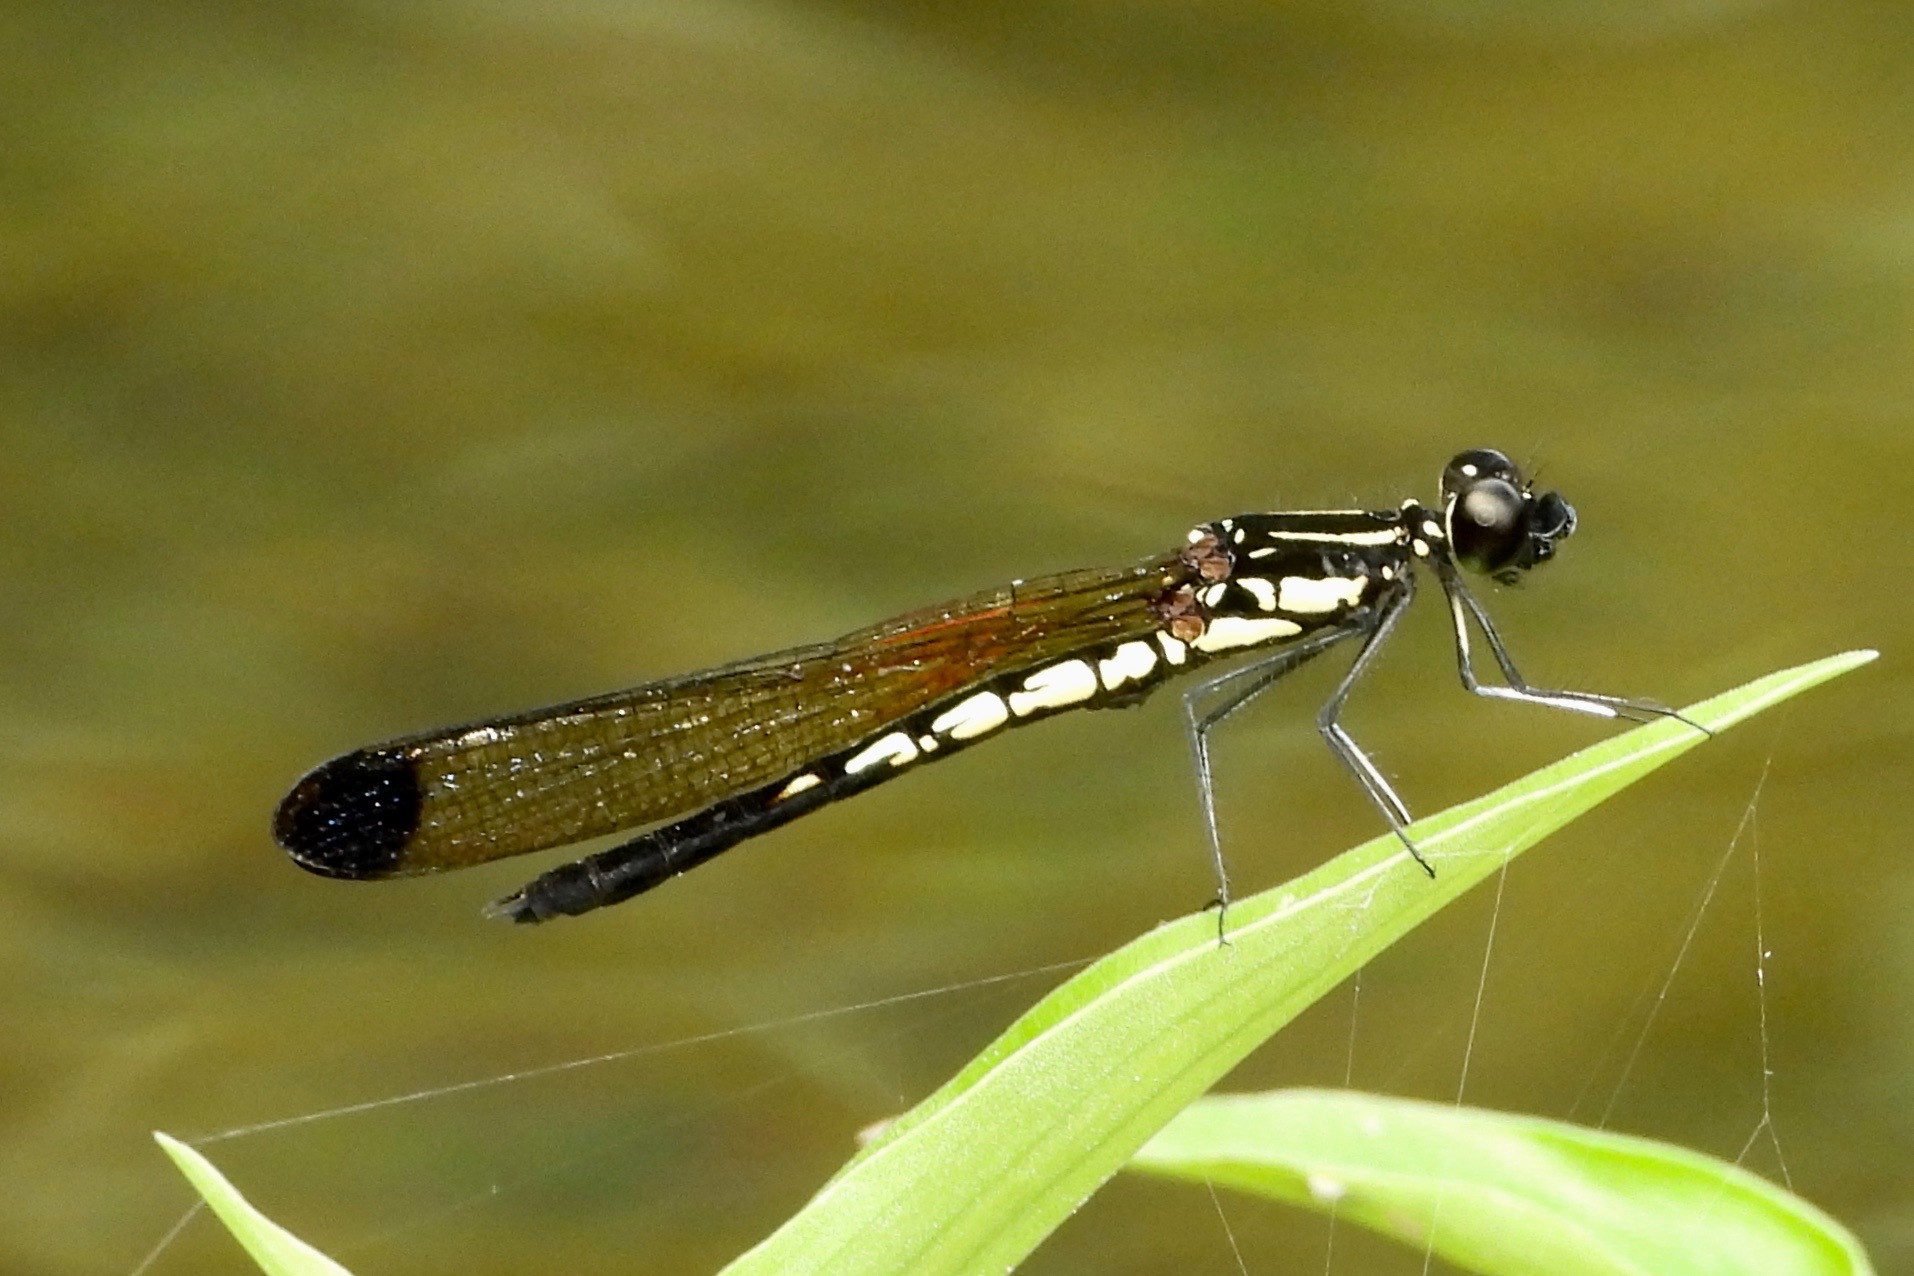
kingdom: Animalia
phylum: Arthropoda
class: Insecta
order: Odonata
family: Chlorocyphidae
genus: Libellago
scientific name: Libellago finalis
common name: Ultima gem
